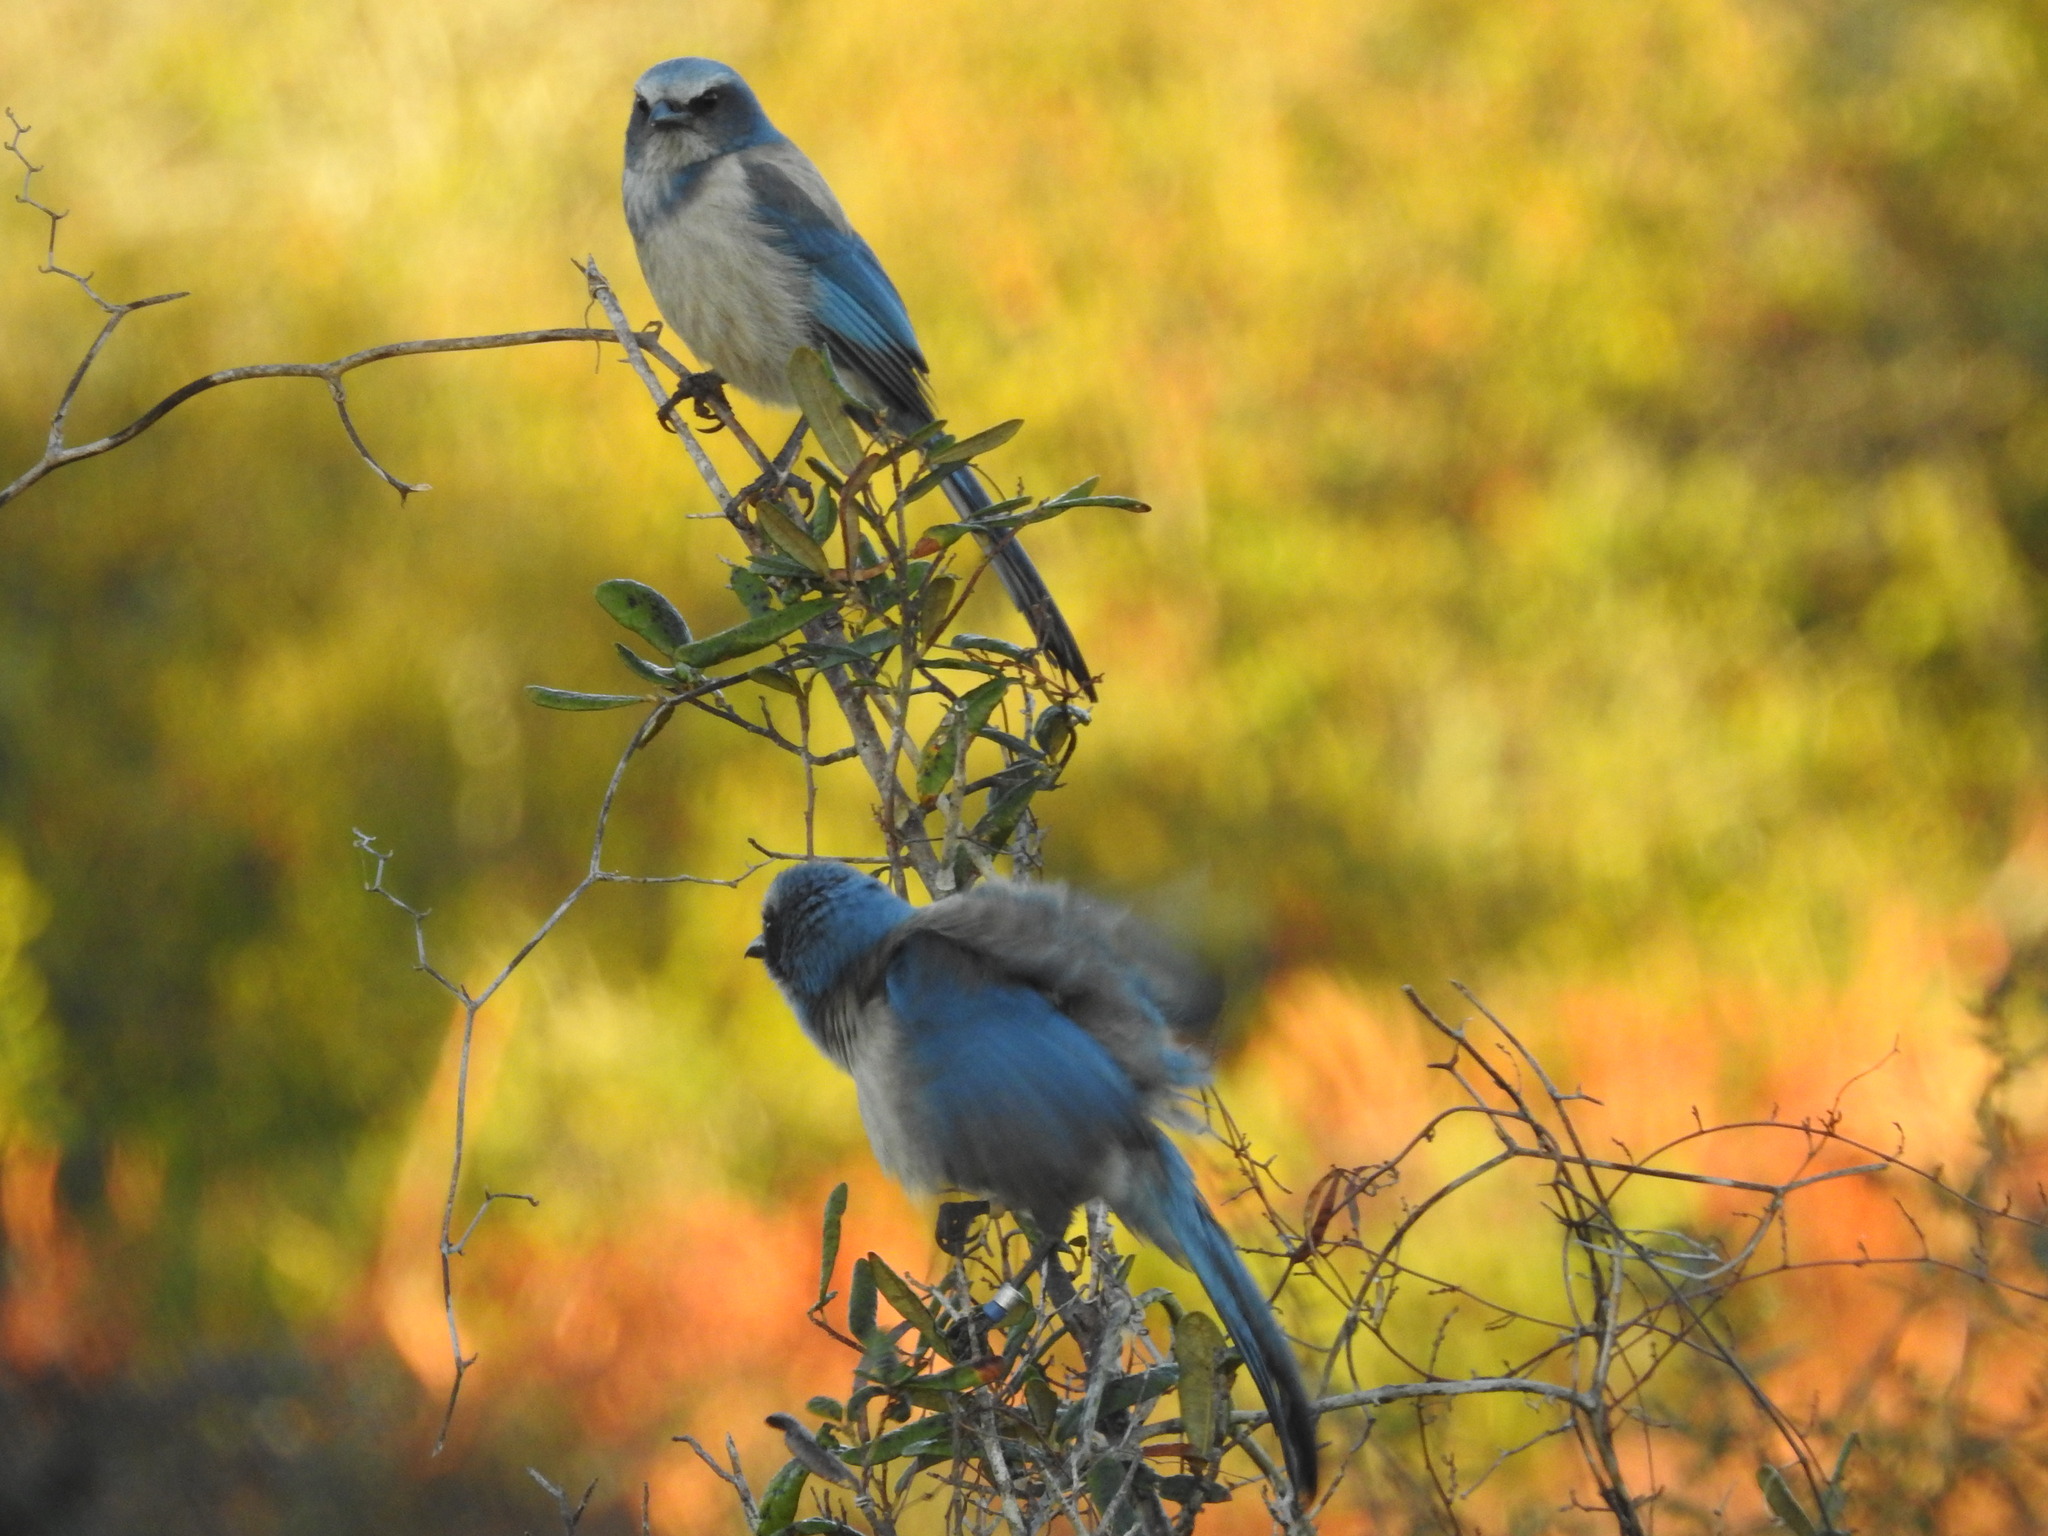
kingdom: Animalia
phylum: Chordata
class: Aves
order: Passeriformes
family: Corvidae
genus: Aphelocoma
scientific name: Aphelocoma coerulescens
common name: Florida scrub jay
